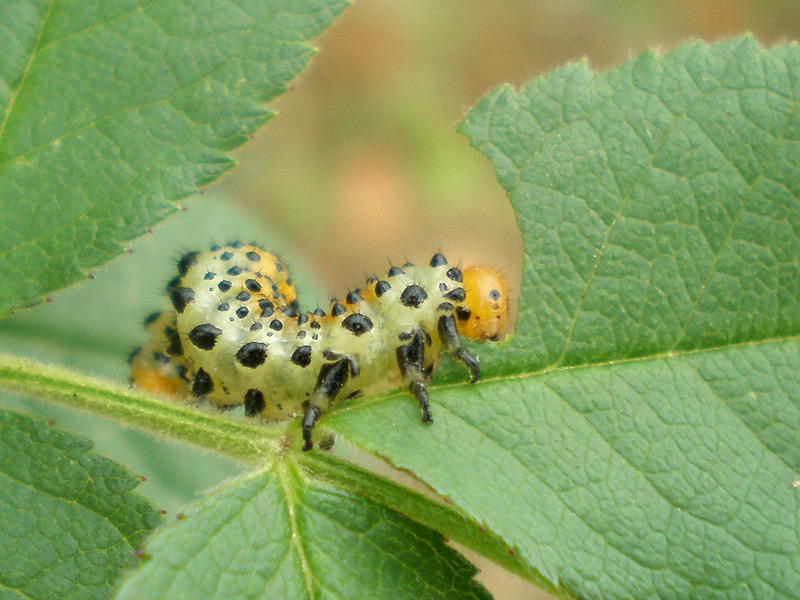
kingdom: Animalia
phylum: Arthropoda
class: Insecta
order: Hymenoptera
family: Argidae
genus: Arge
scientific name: Arge ochropus
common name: Argid sawfly
